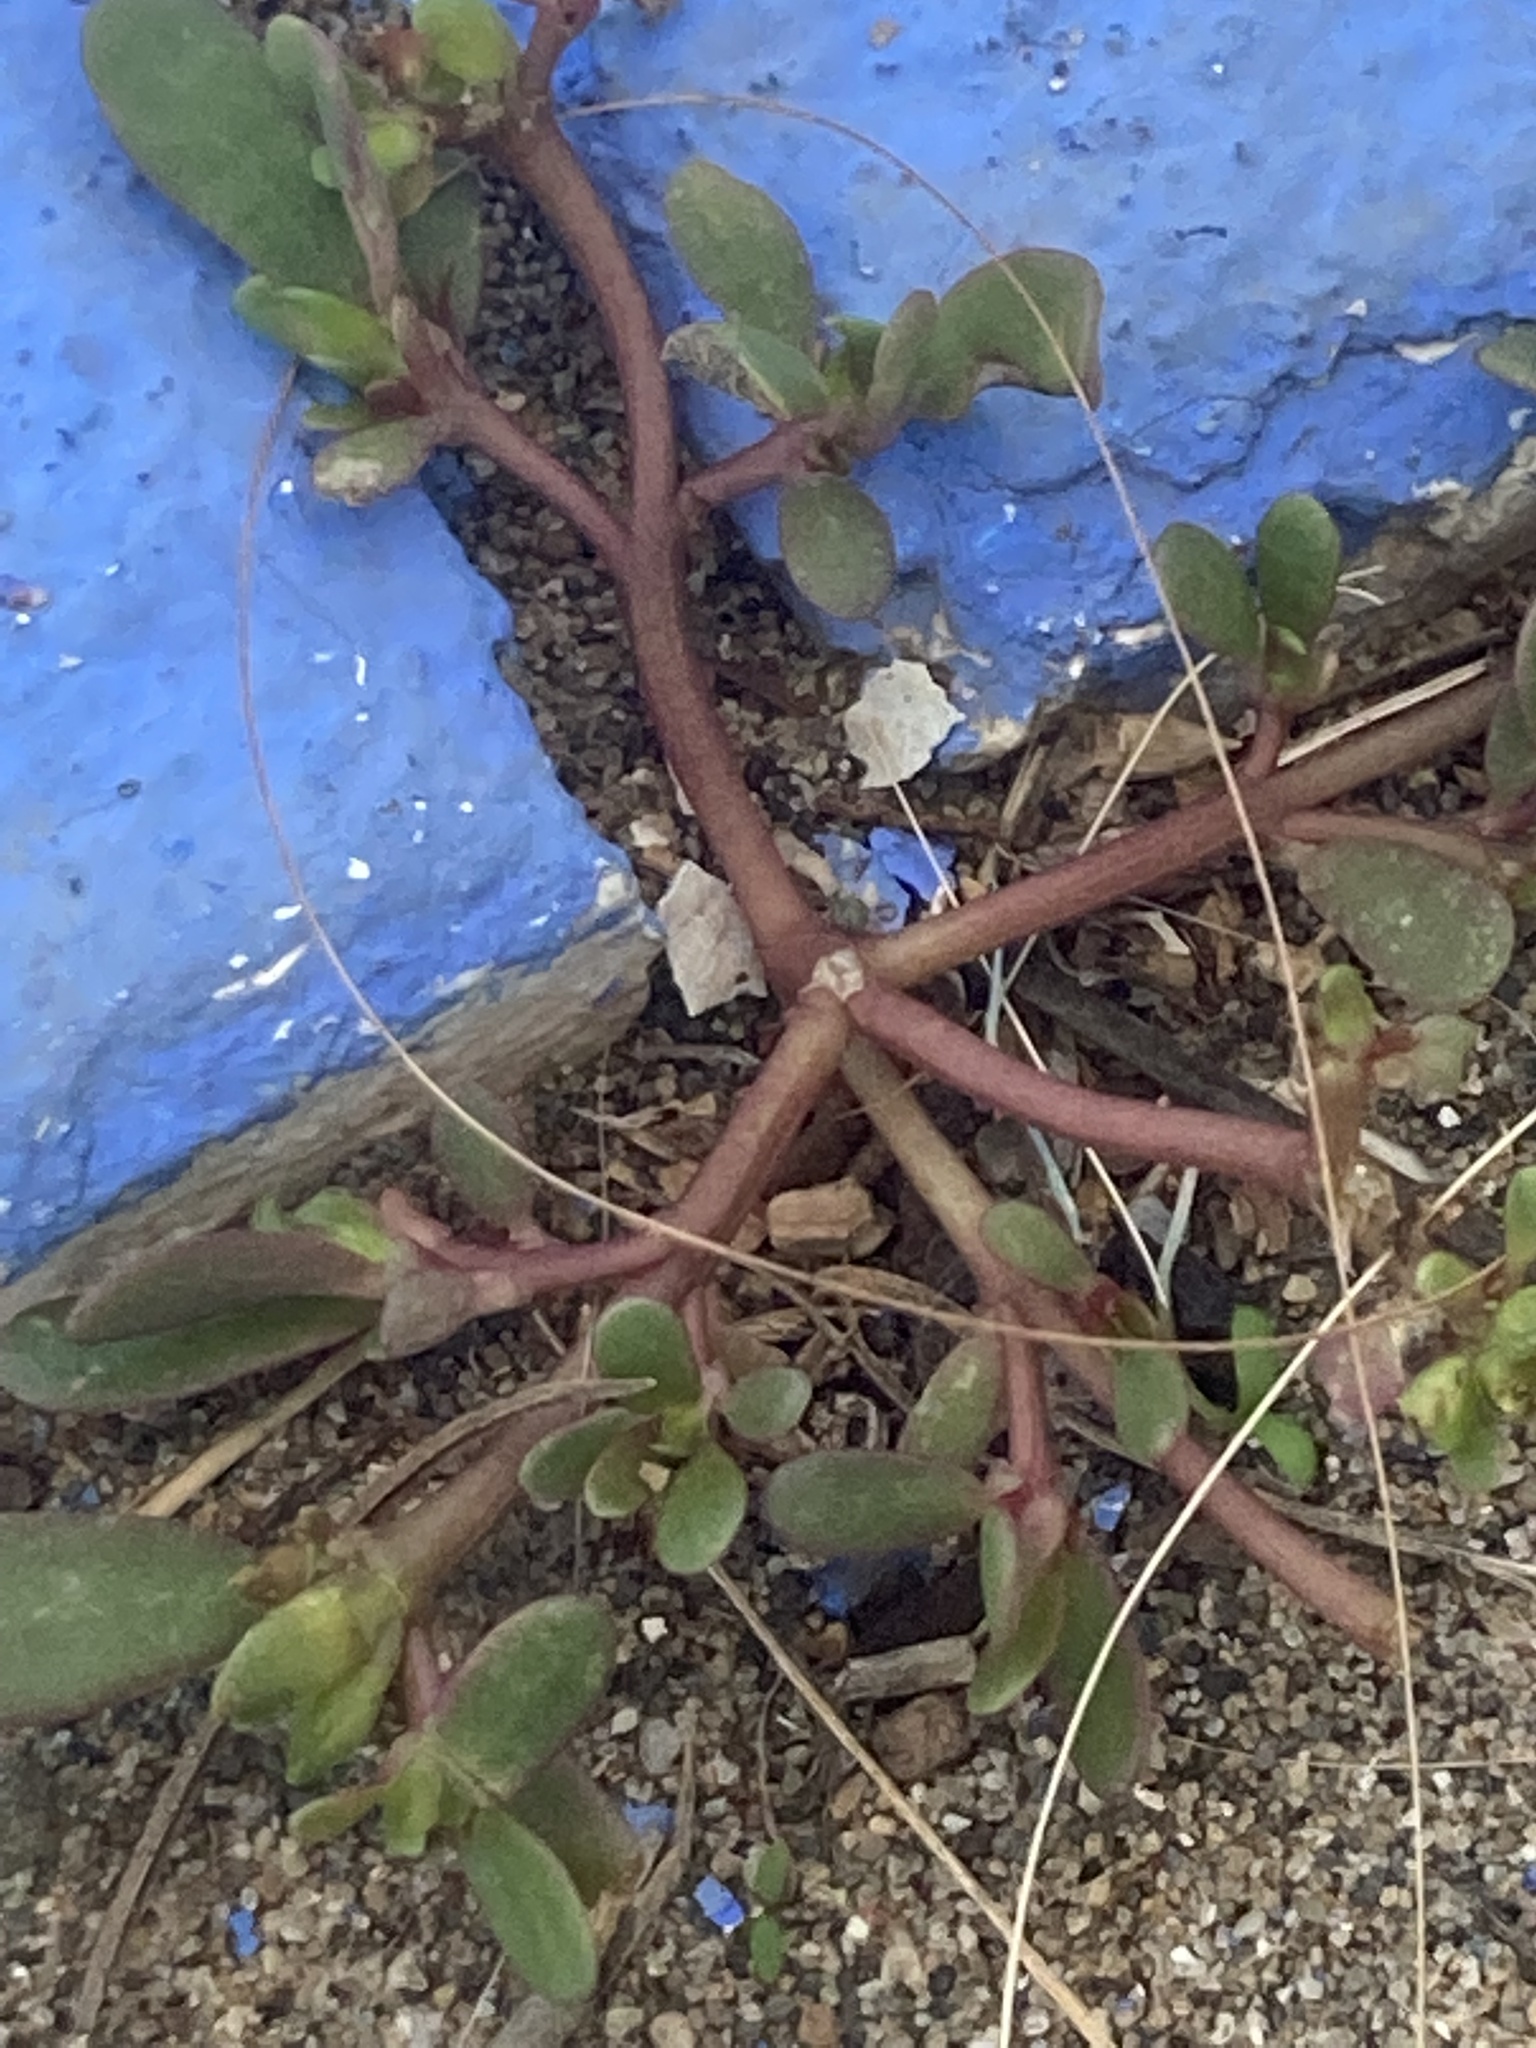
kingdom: Plantae
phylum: Tracheophyta
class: Magnoliopsida
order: Caryophyllales
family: Portulacaceae
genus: Portulaca
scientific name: Portulaca oleracea
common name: Common purslane
